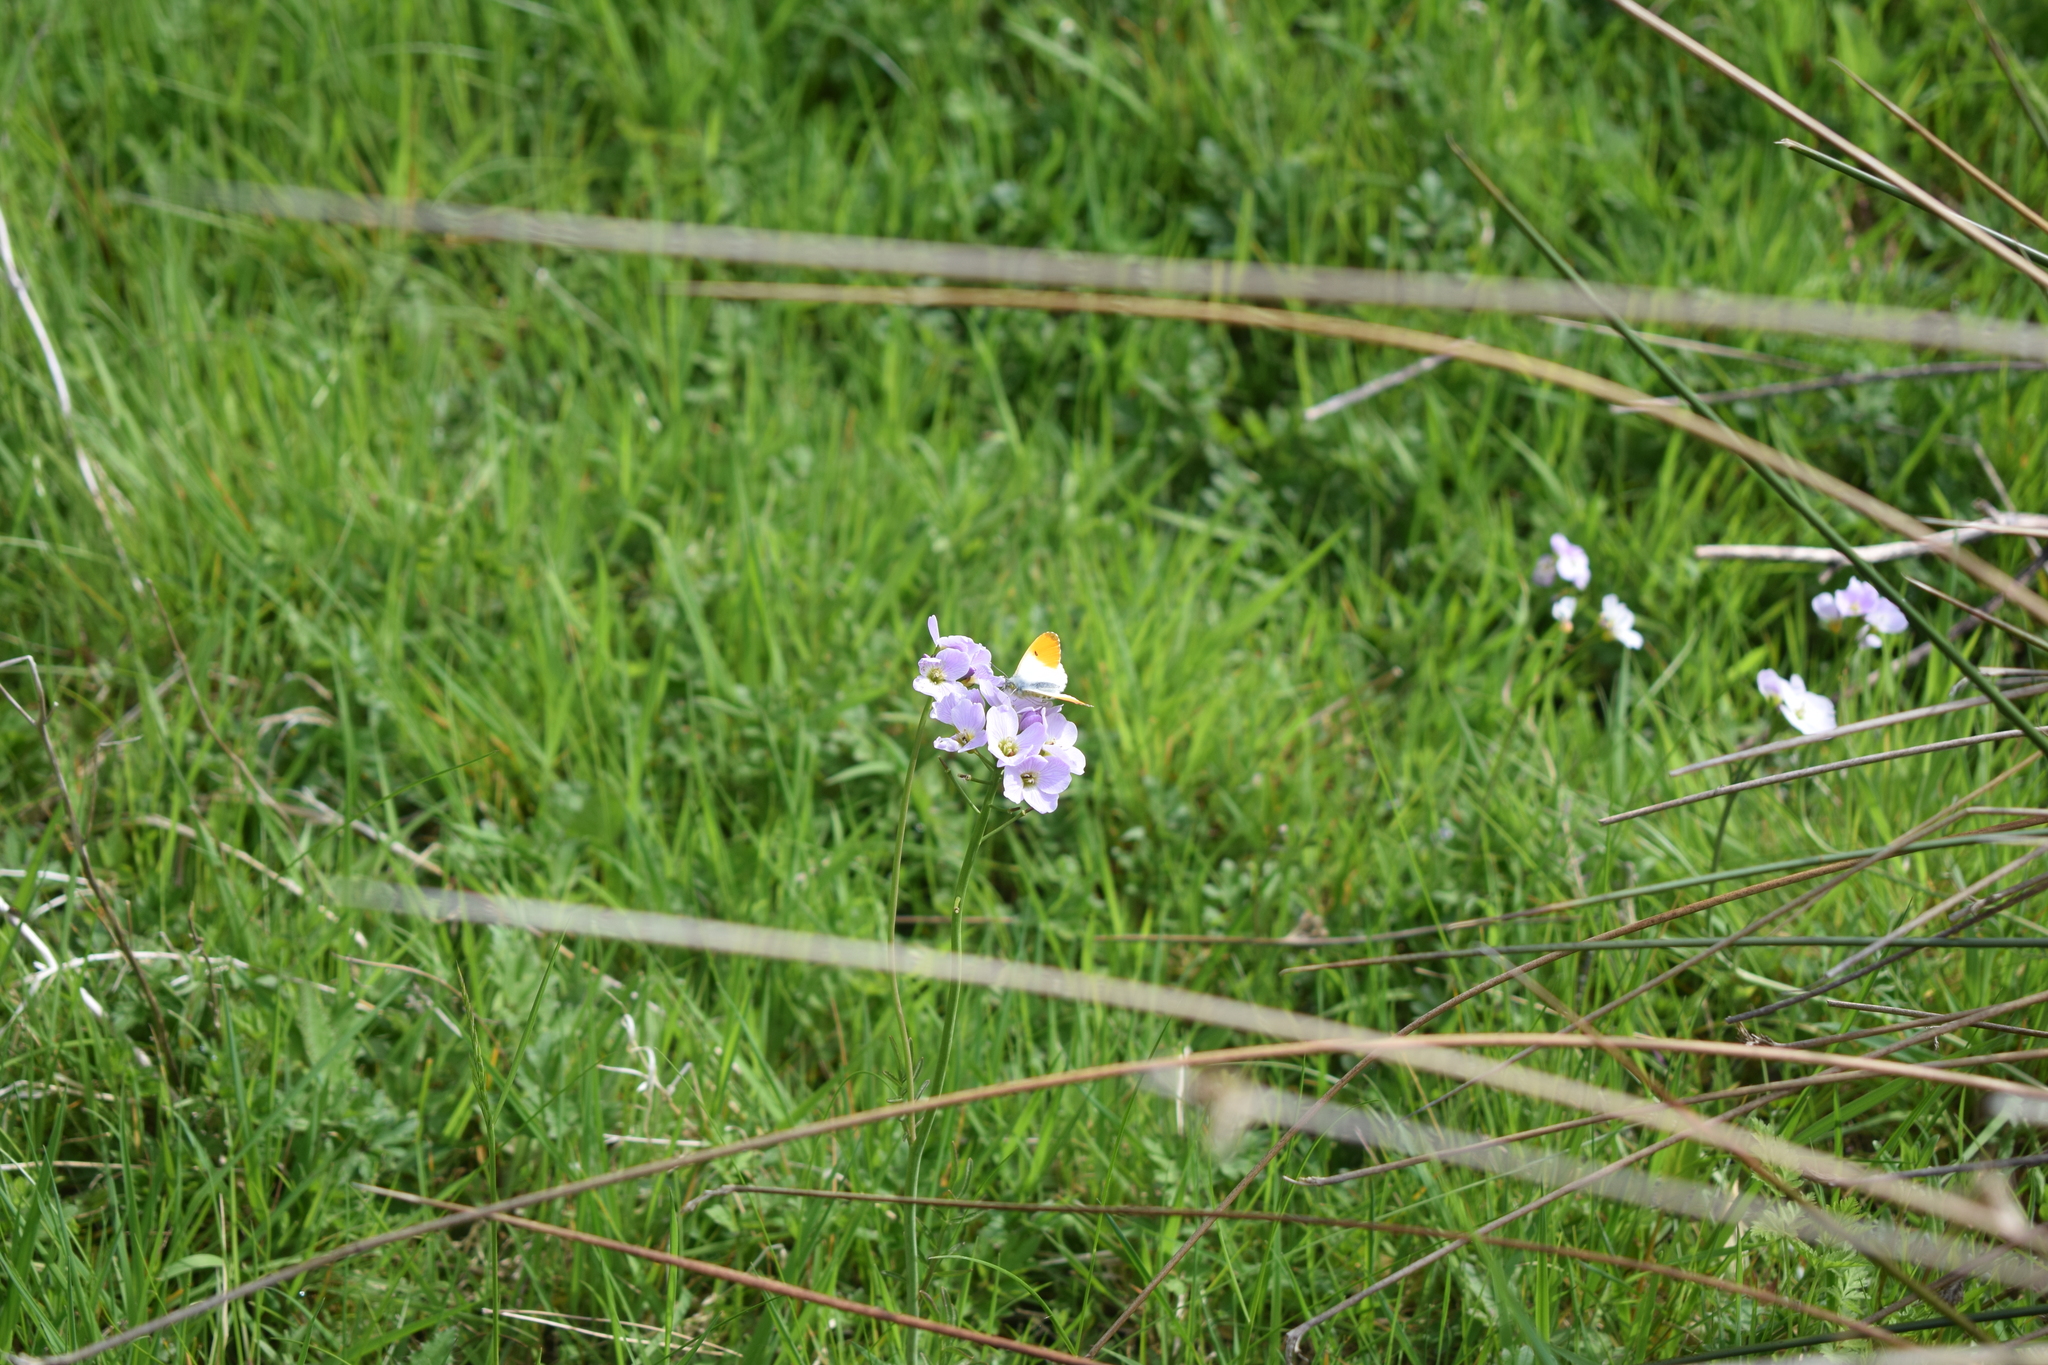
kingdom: Animalia
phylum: Arthropoda
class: Insecta
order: Lepidoptera
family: Pieridae
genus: Anthocharis
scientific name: Anthocharis cardamines
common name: Orange-tip
